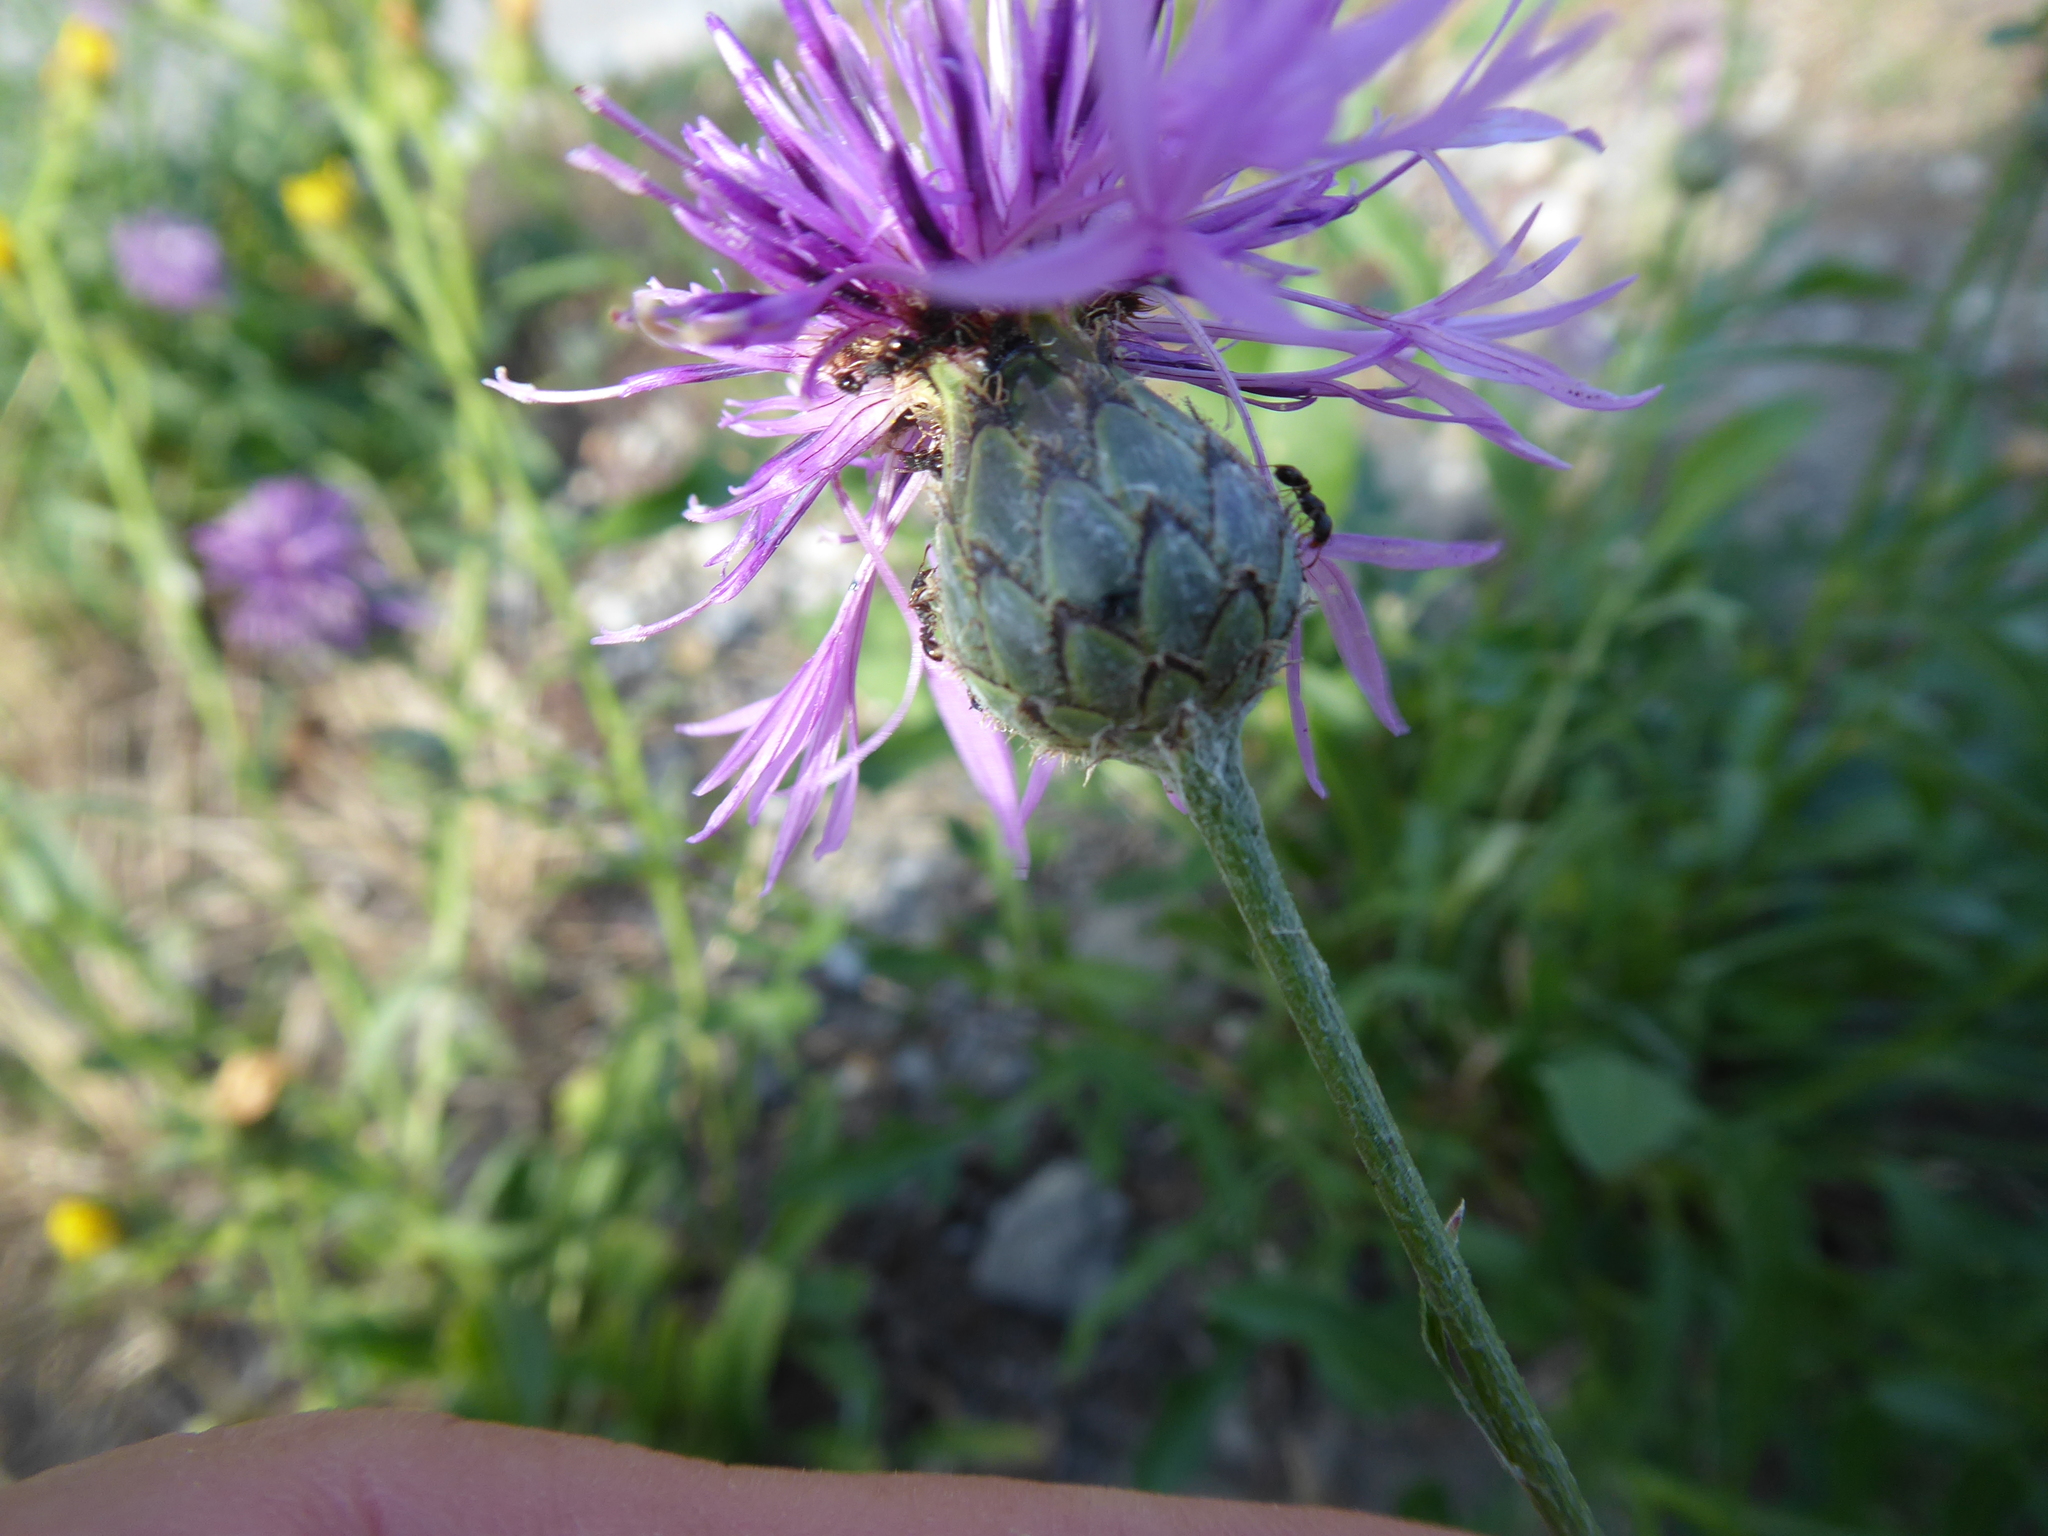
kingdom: Plantae
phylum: Tracheophyta
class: Magnoliopsida
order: Asterales
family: Asteraceae
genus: Centaurea
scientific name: Centaurea scabiosa
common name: Greater knapweed
